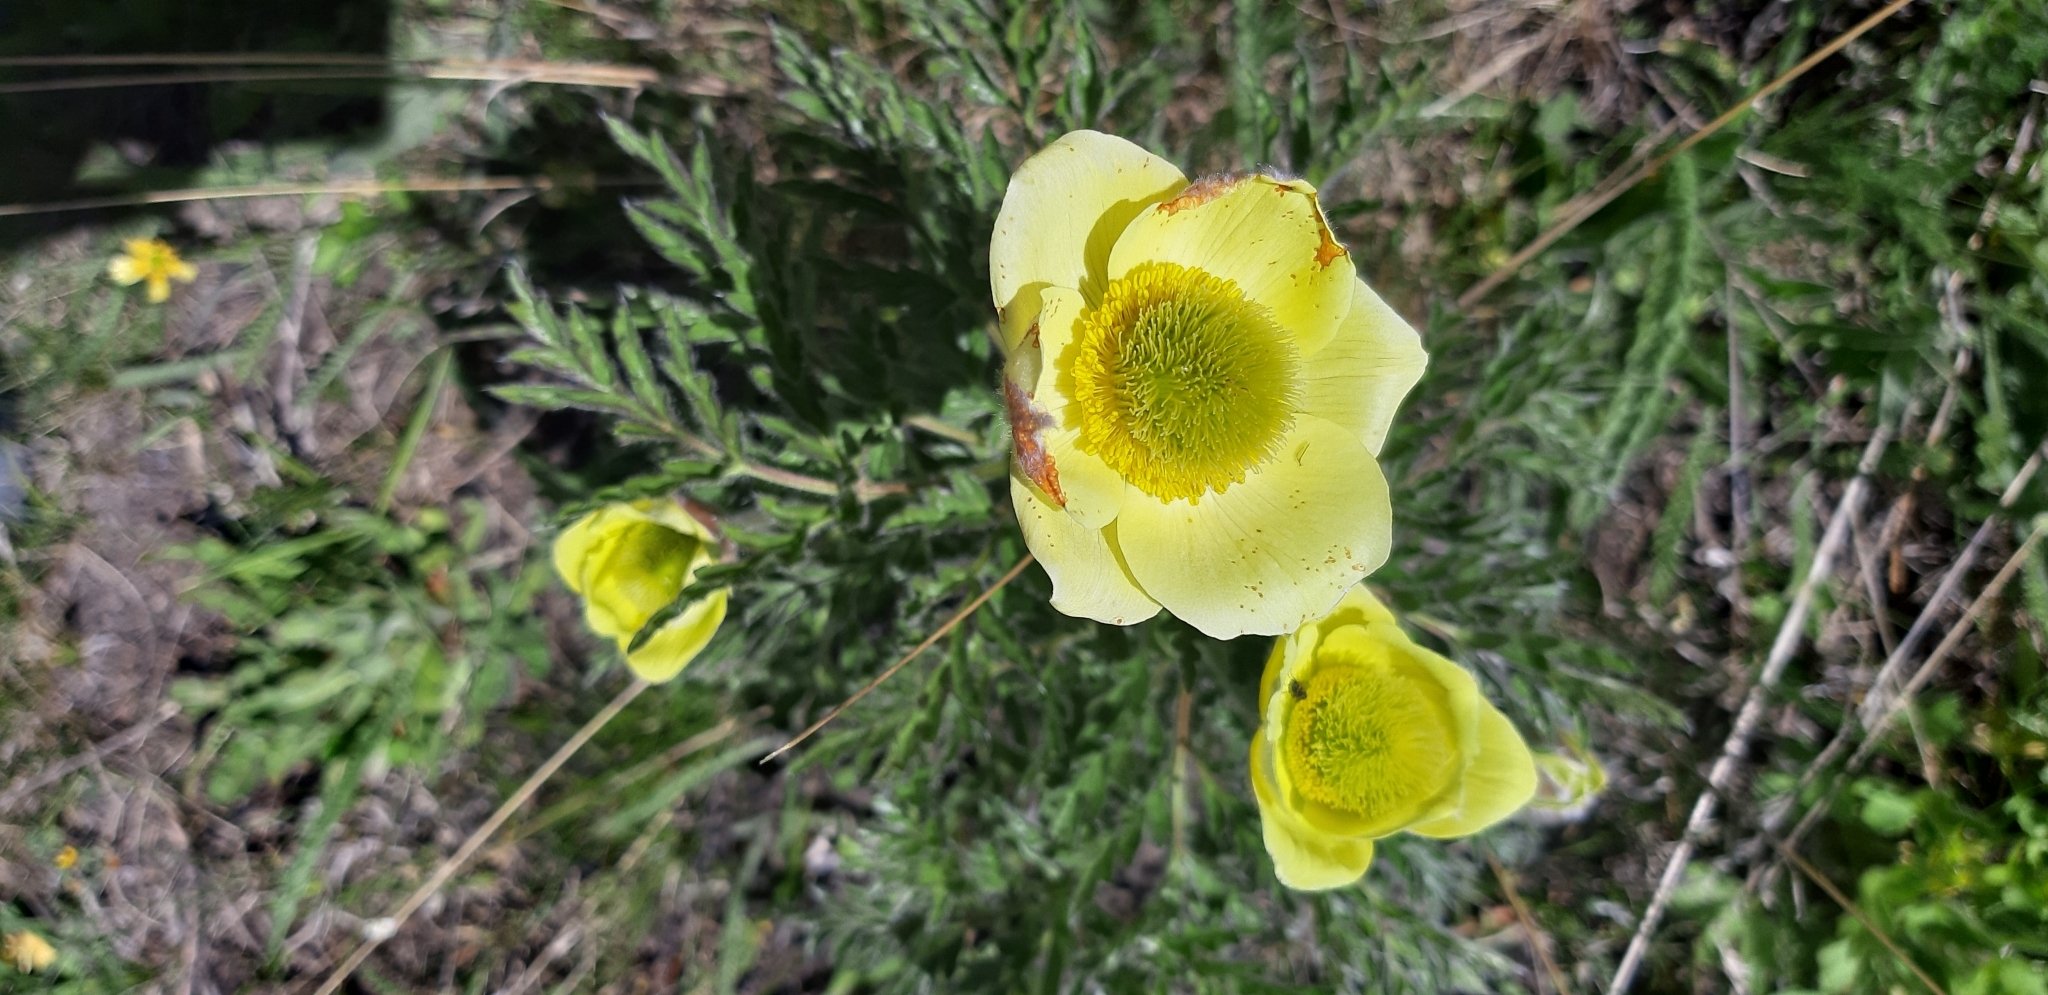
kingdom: Plantae
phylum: Tracheophyta
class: Magnoliopsida
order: Ranunculales
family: Ranunculaceae
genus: Pulsatilla
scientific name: Pulsatilla alpina
